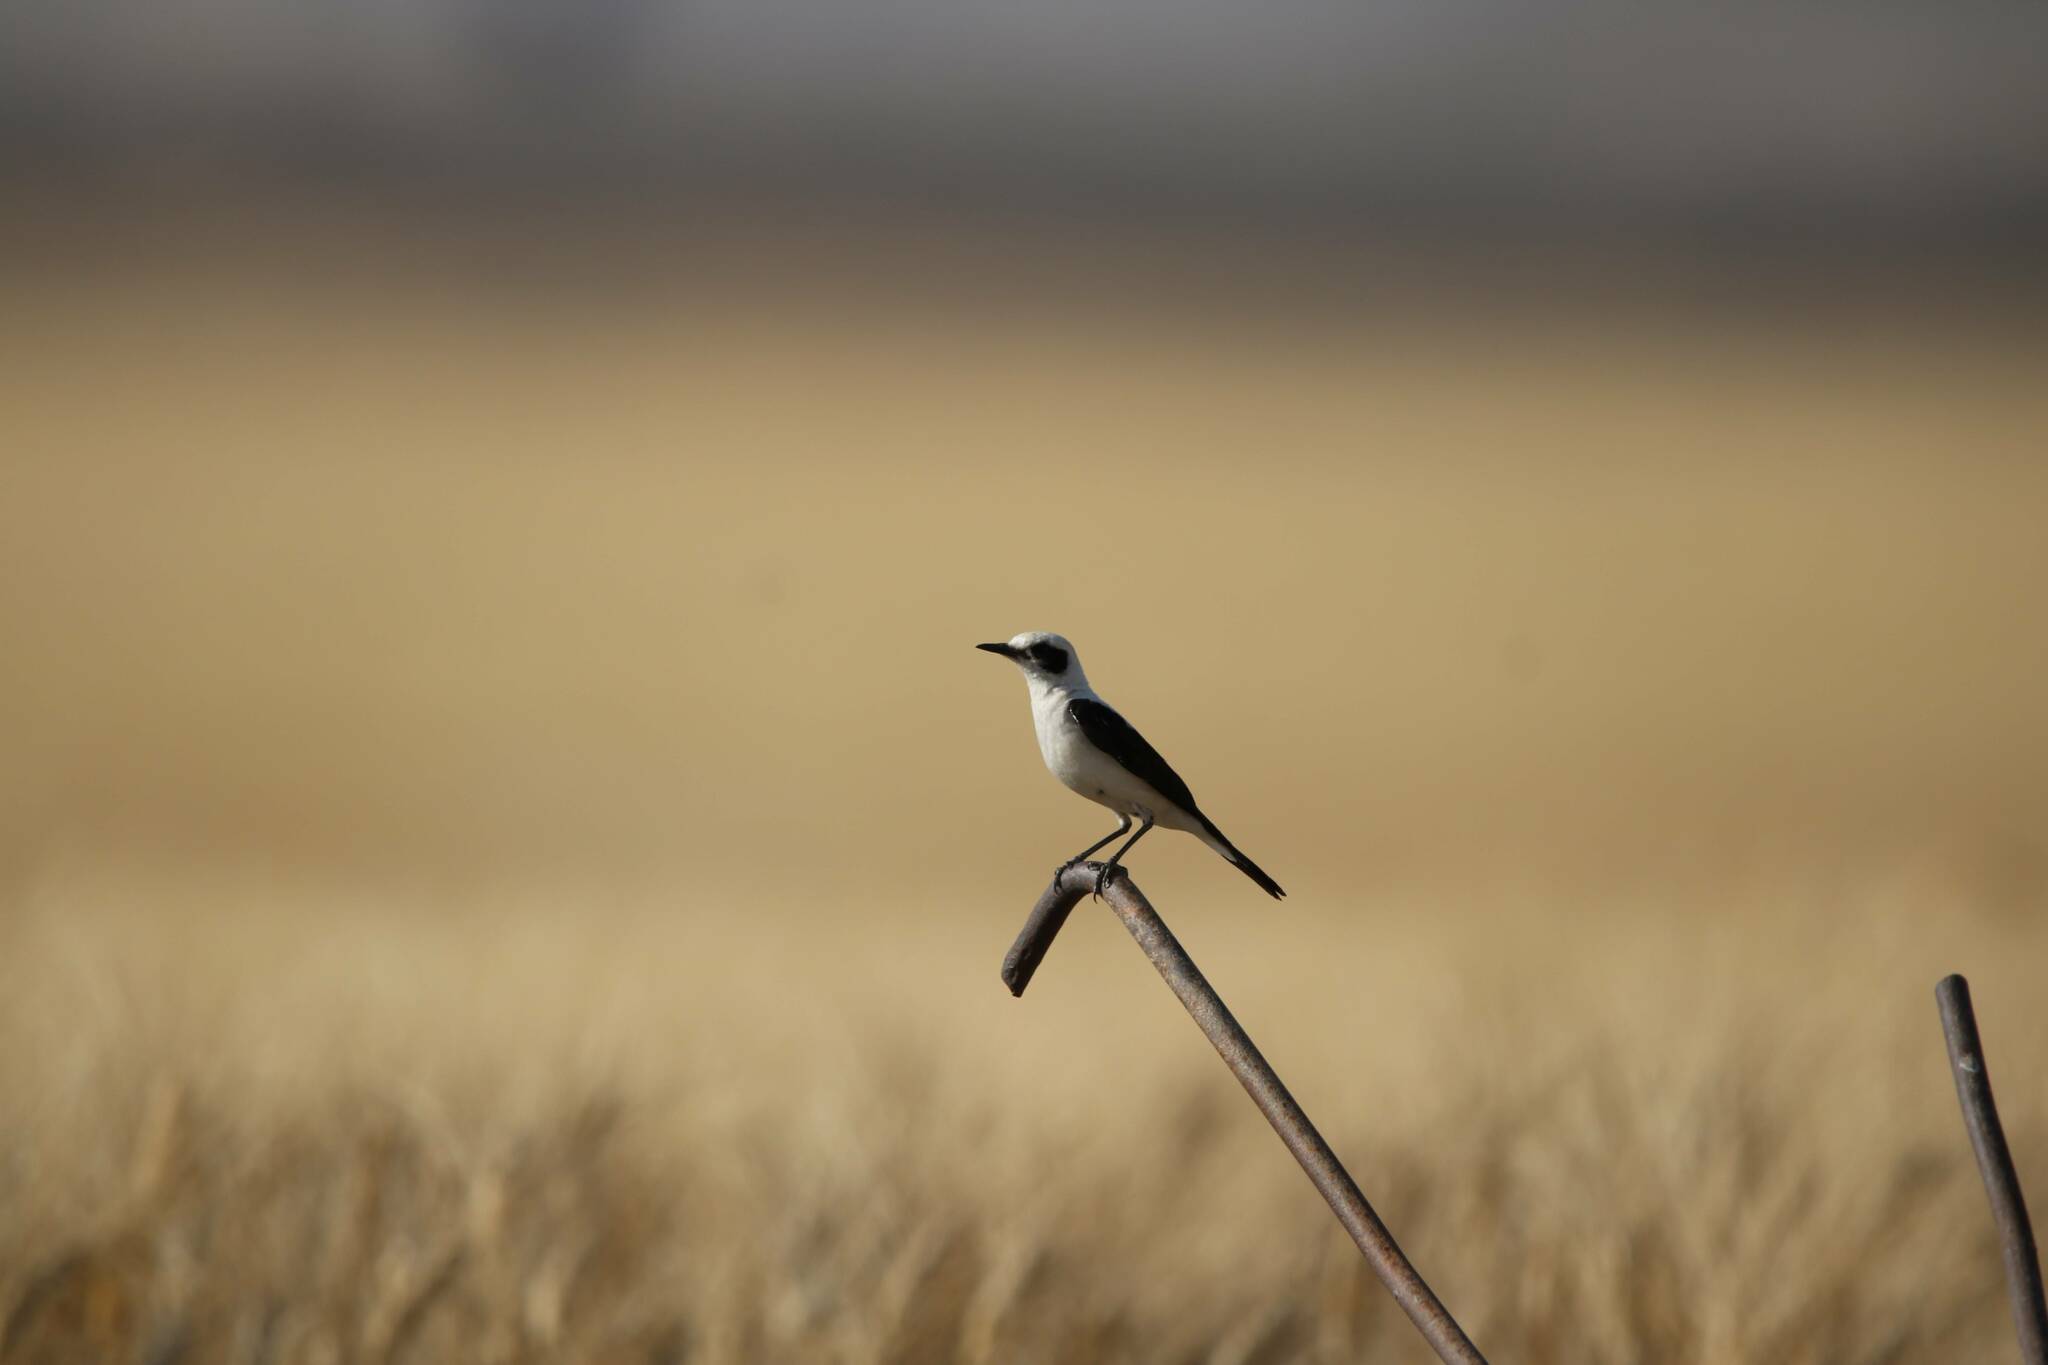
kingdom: Animalia
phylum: Chordata
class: Aves
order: Passeriformes
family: Muscicapidae
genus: Oenanthe
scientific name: Oenanthe hispanica
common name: Black-eared wheatear
